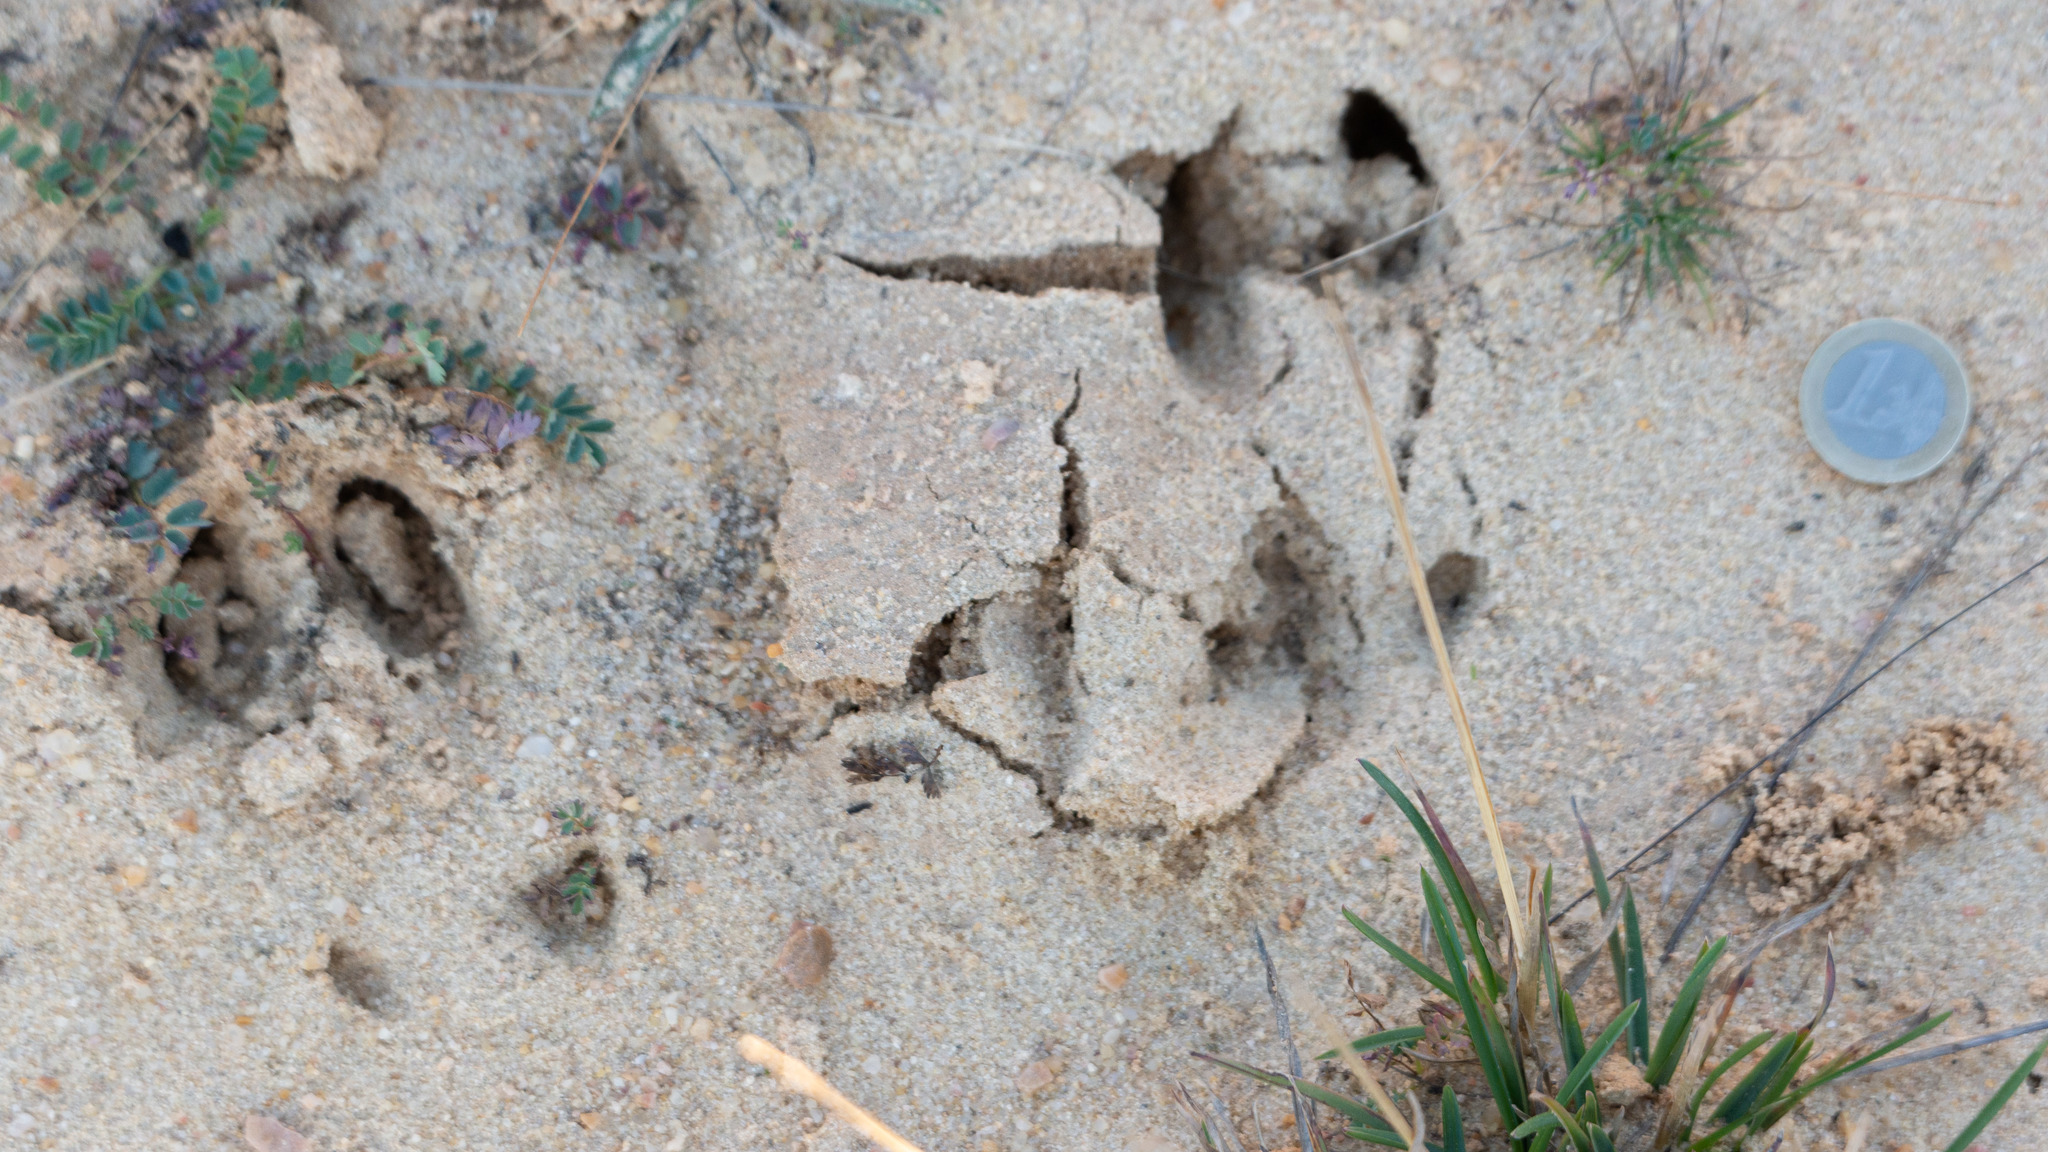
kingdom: Animalia
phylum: Chordata
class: Mammalia
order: Artiodactyla
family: Cervidae
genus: Capreolus
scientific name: Capreolus capreolus
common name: Western roe deer
